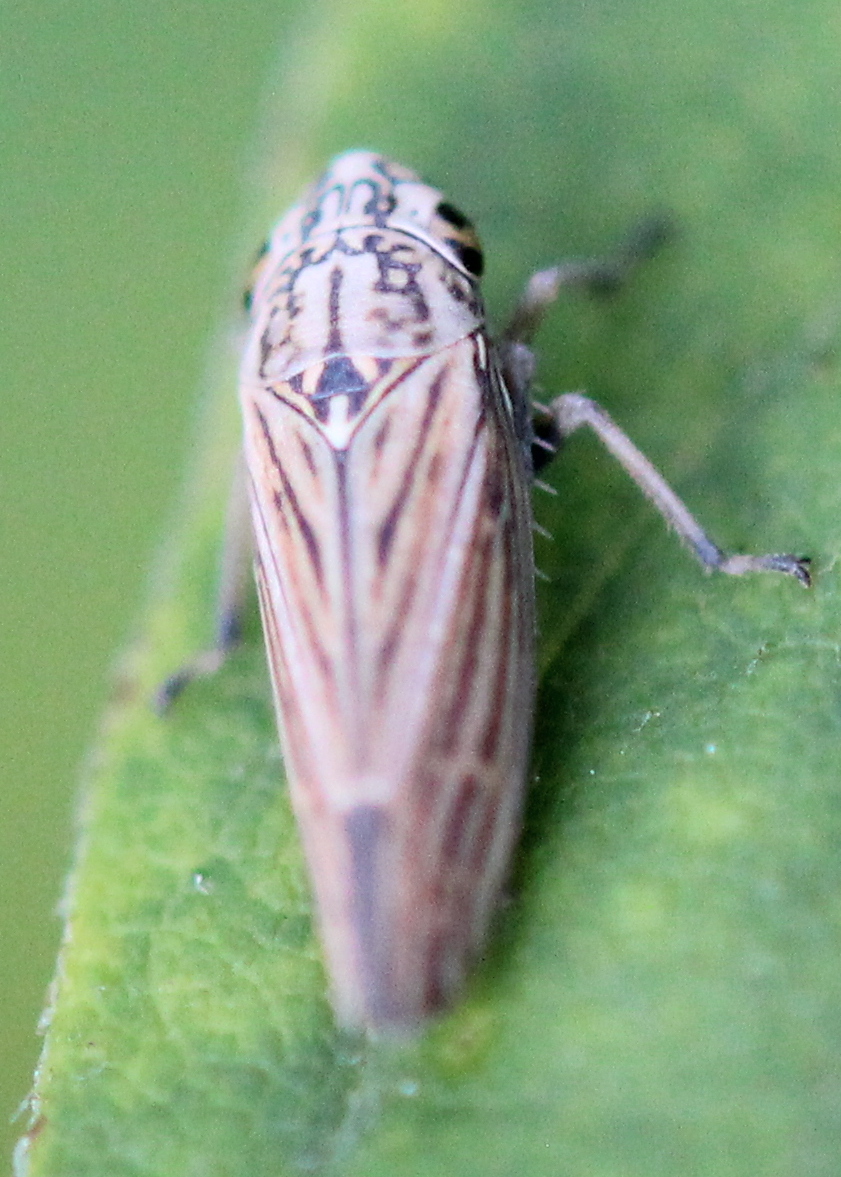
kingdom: Animalia
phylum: Arthropoda
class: Insecta
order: Hemiptera
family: Cicadellidae
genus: Neokolla
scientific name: Neokolla hieroglyphica
